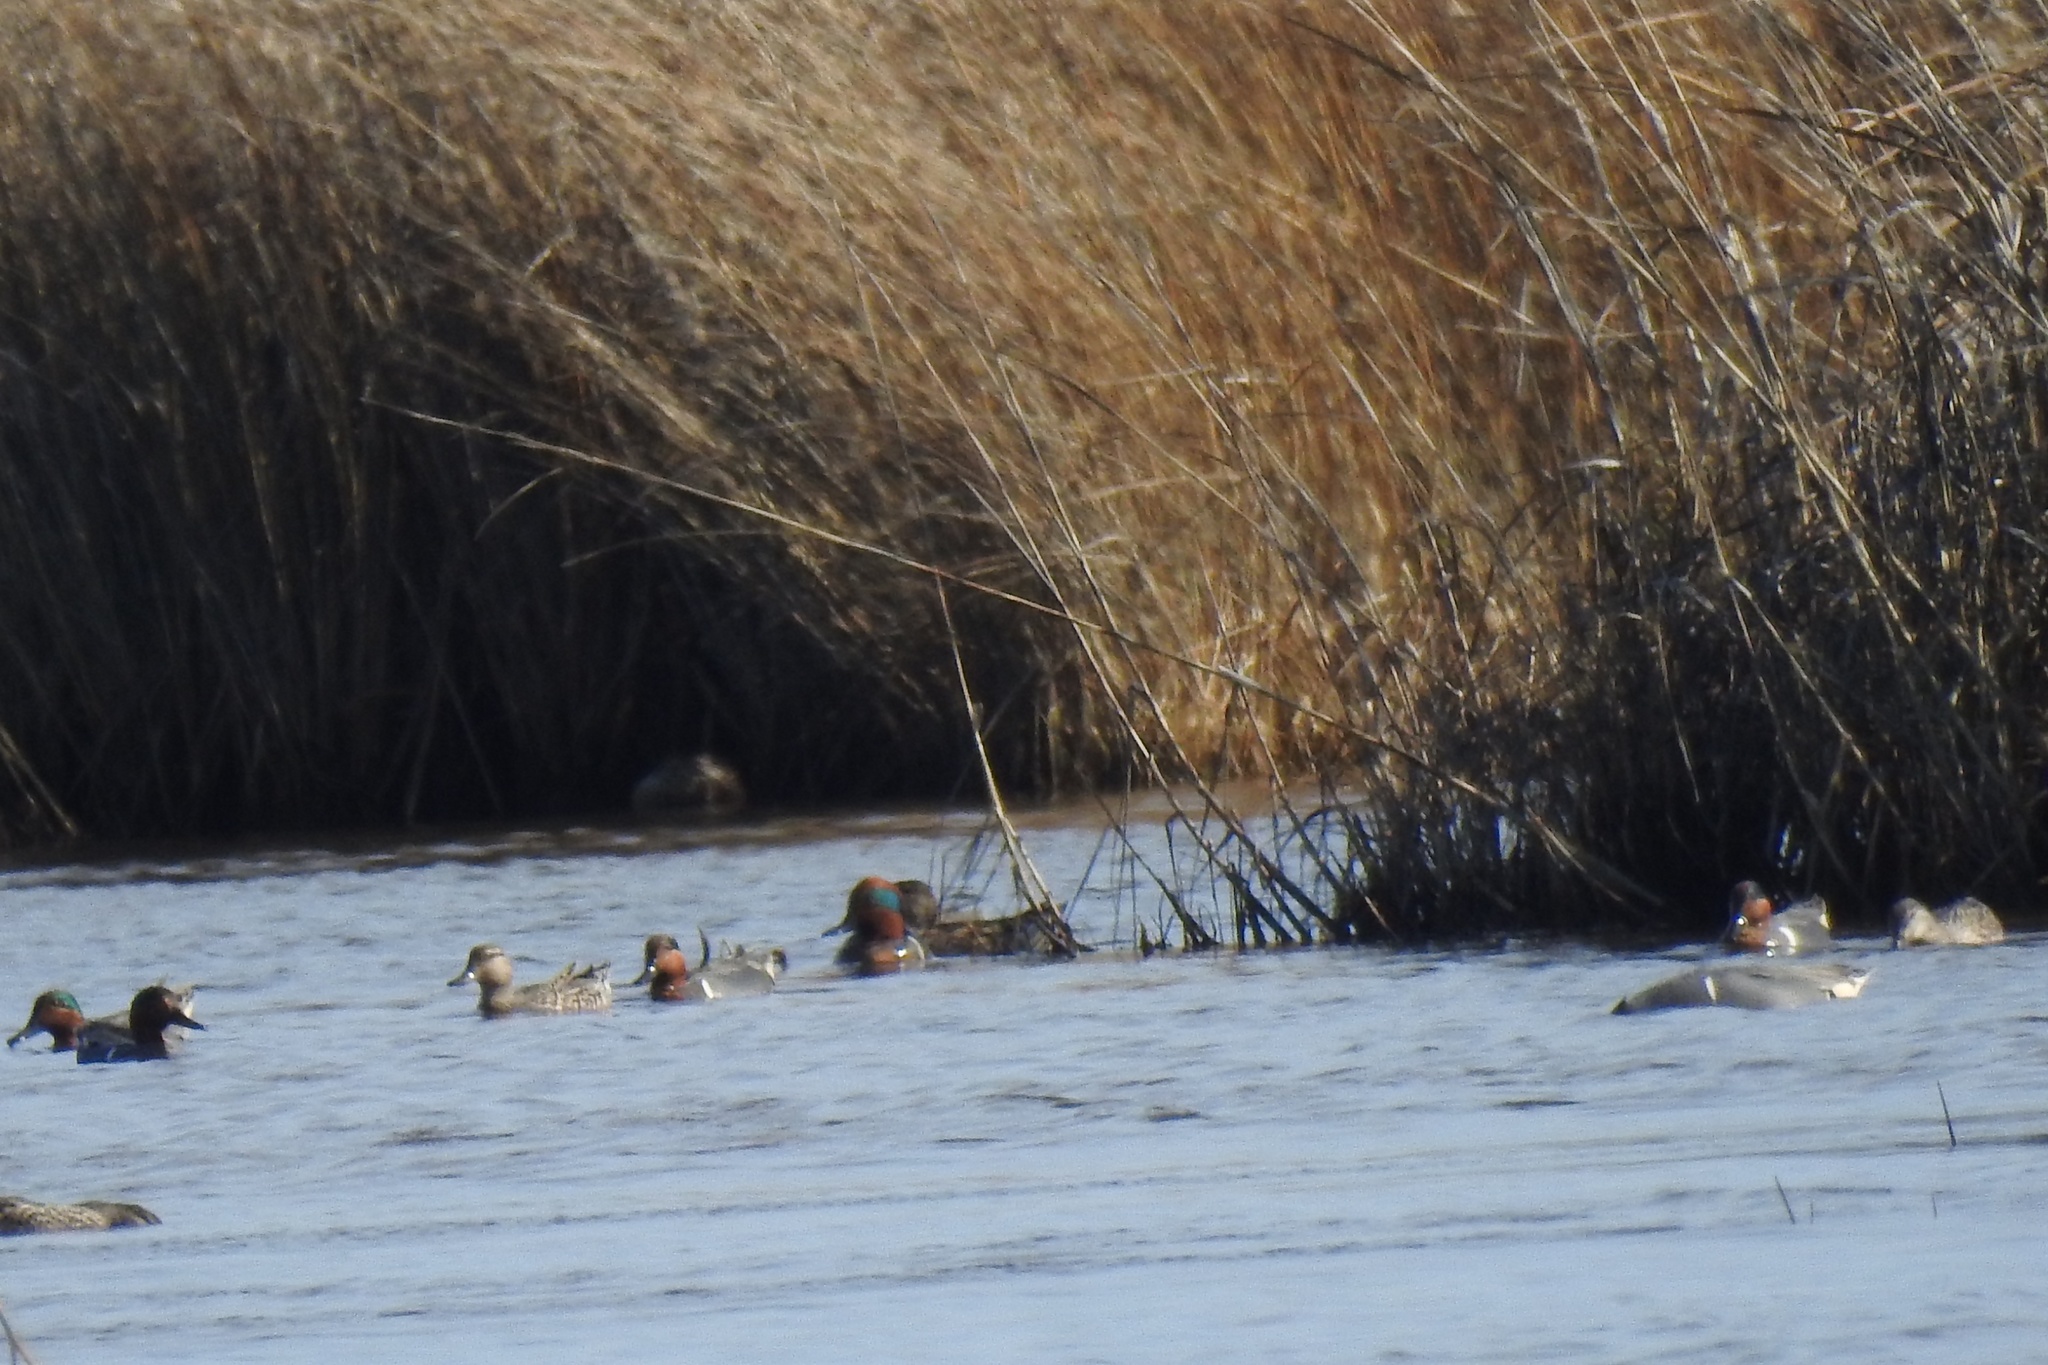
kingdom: Animalia
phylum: Chordata
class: Aves
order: Anseriformes
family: Anatidae
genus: Anas
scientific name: Anas crecca
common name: Eurasian teal
